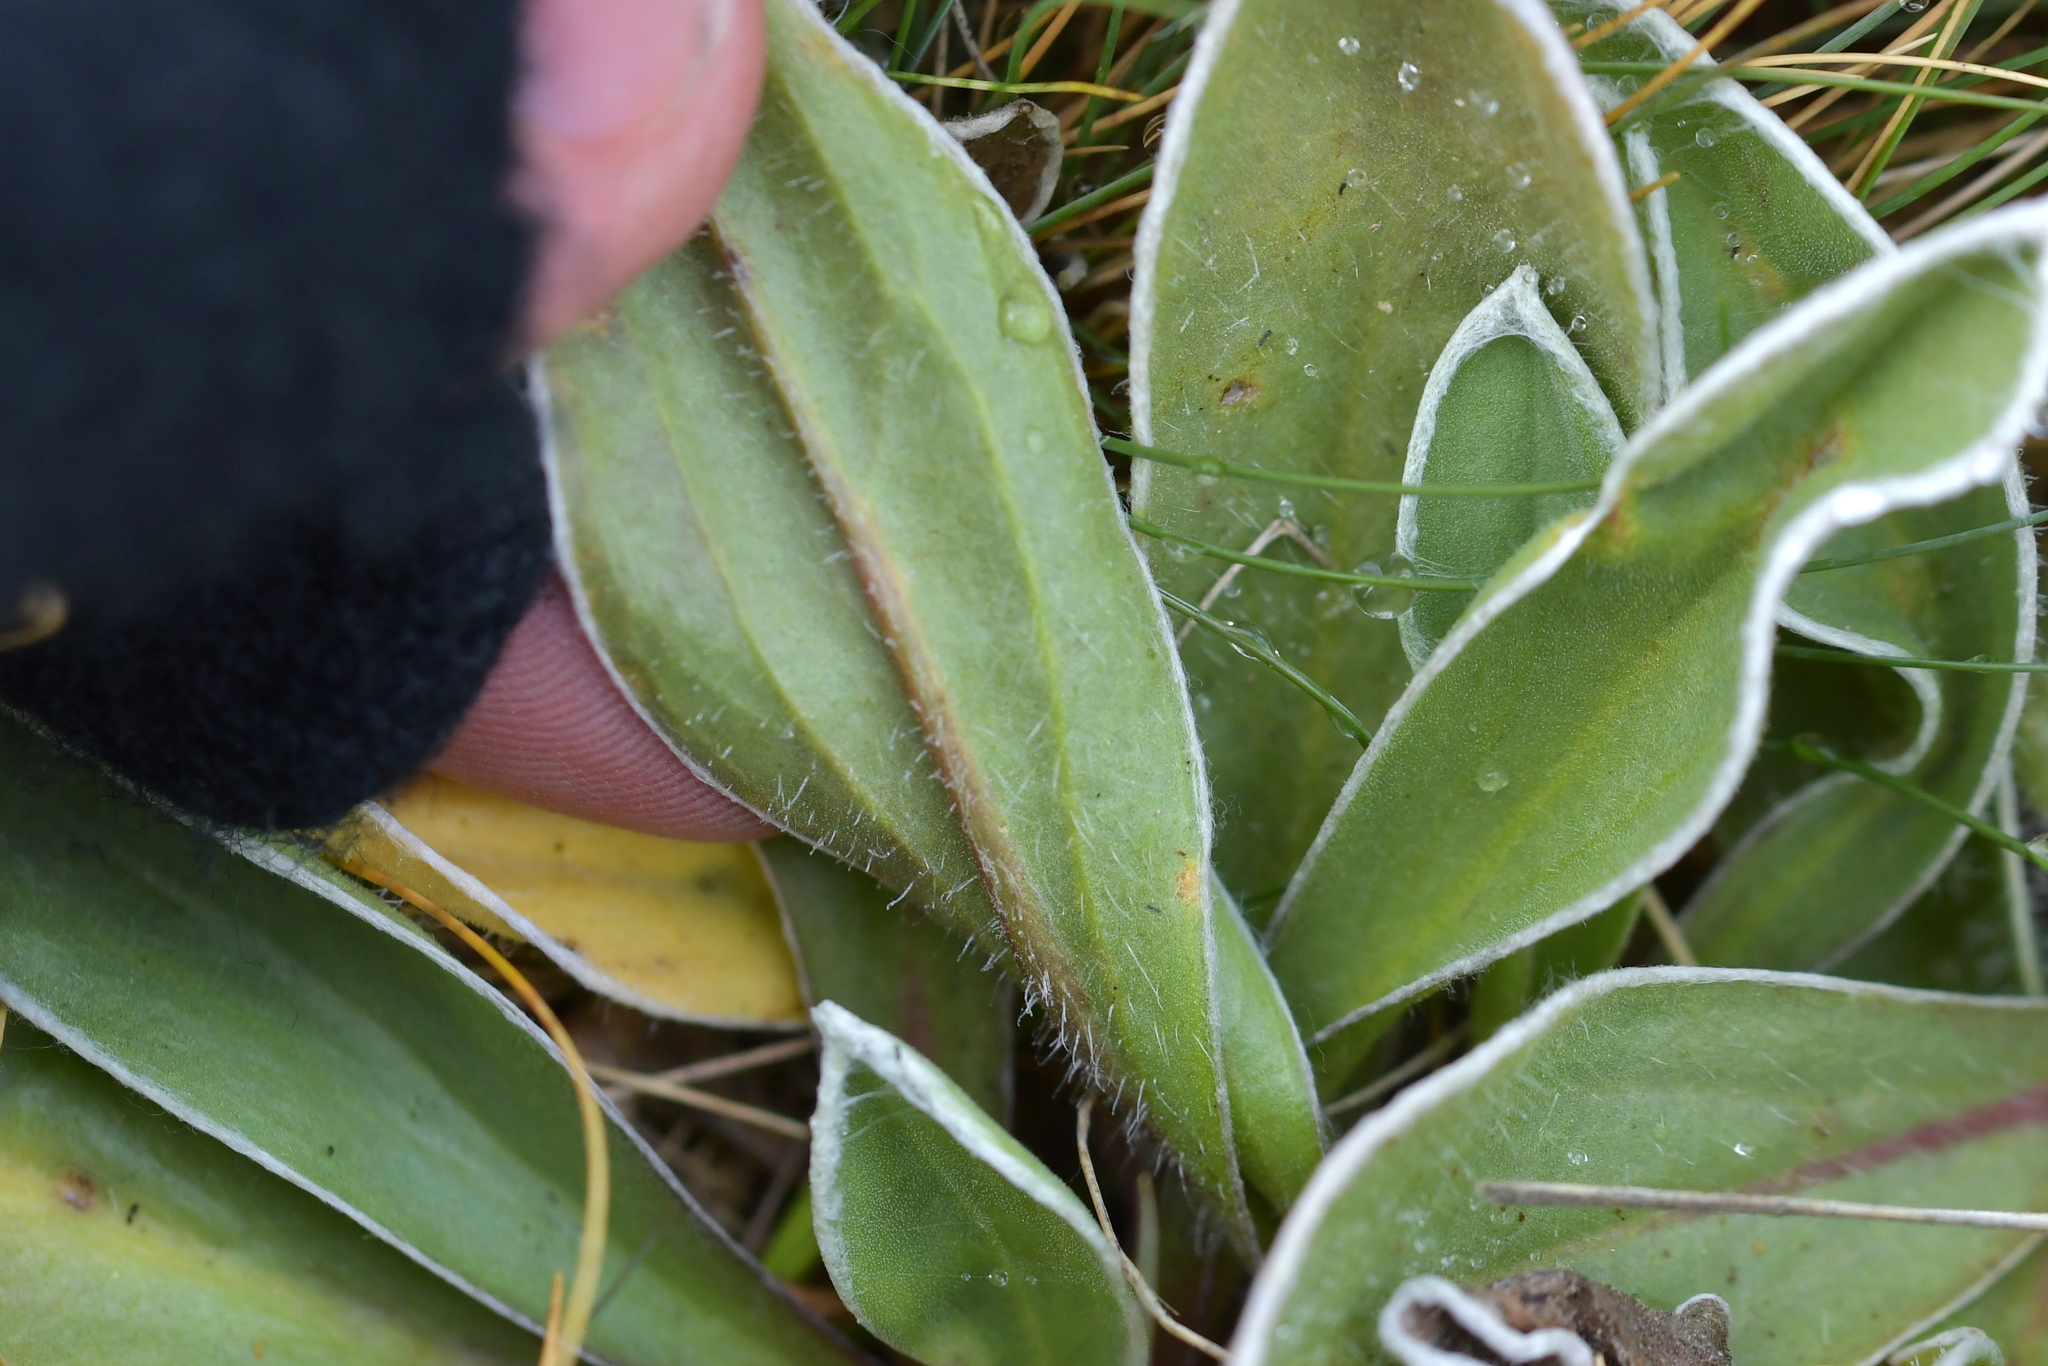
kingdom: Plantae
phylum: Tracheophyta
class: Magnoliopsida
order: Asterales
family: Asteraceae
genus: Craspedia
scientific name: Craspedia uniflora
